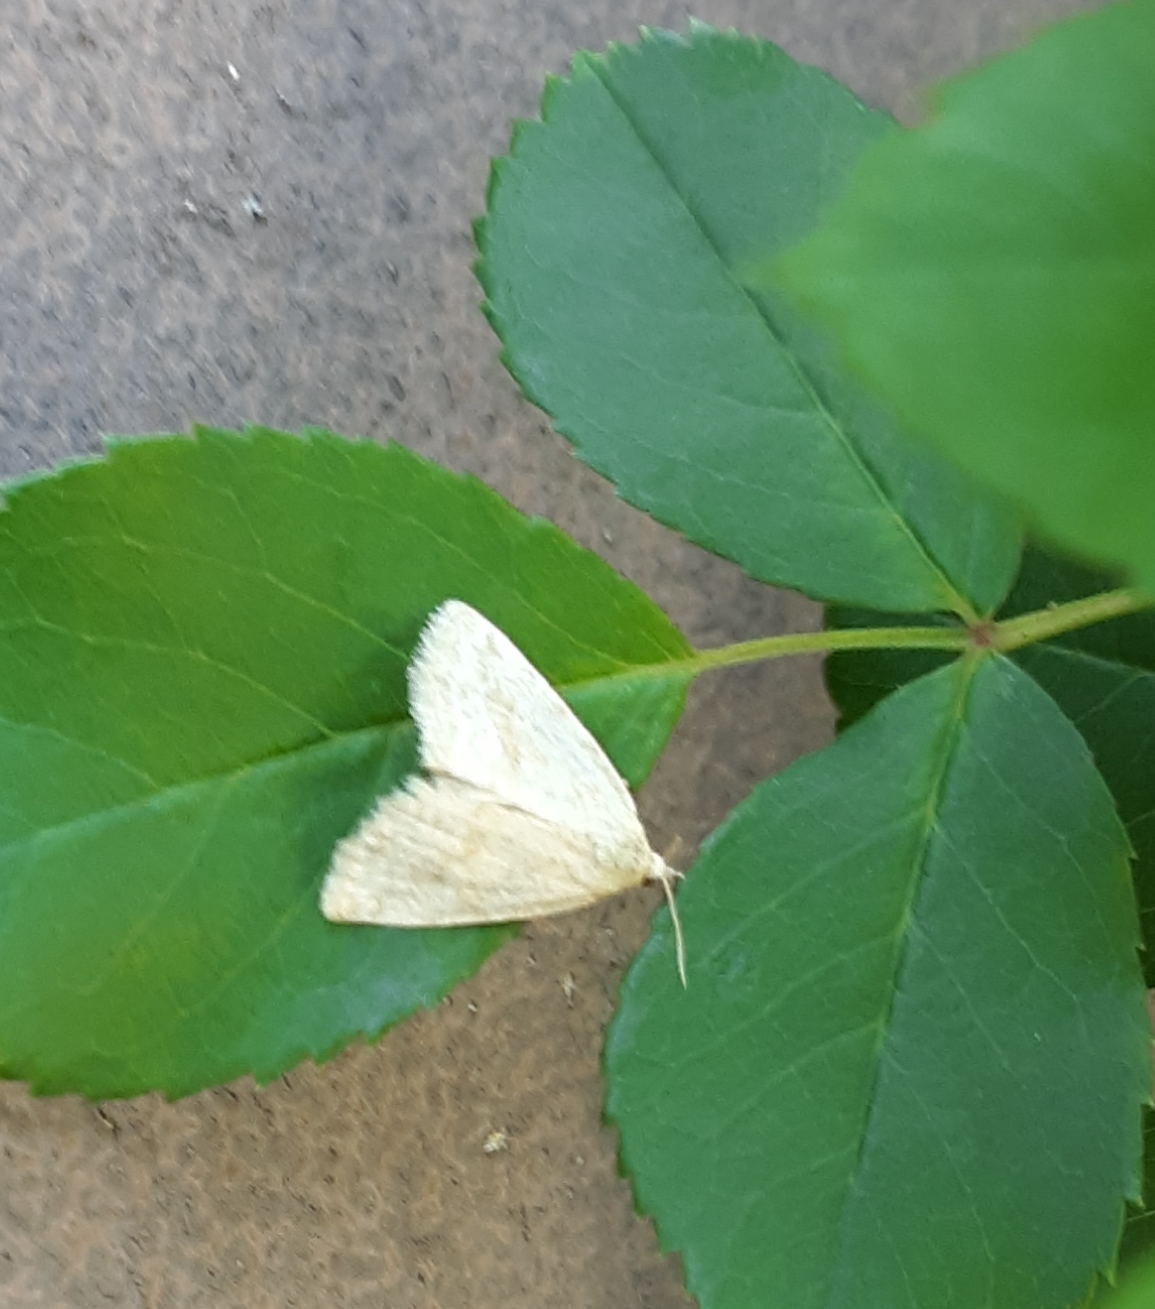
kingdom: Animalia
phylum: Arthropoda
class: Insecta
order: Lepidoptera
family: Noctuidae
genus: Protodeltote
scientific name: Protodeltote albidula
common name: Pale glyph
